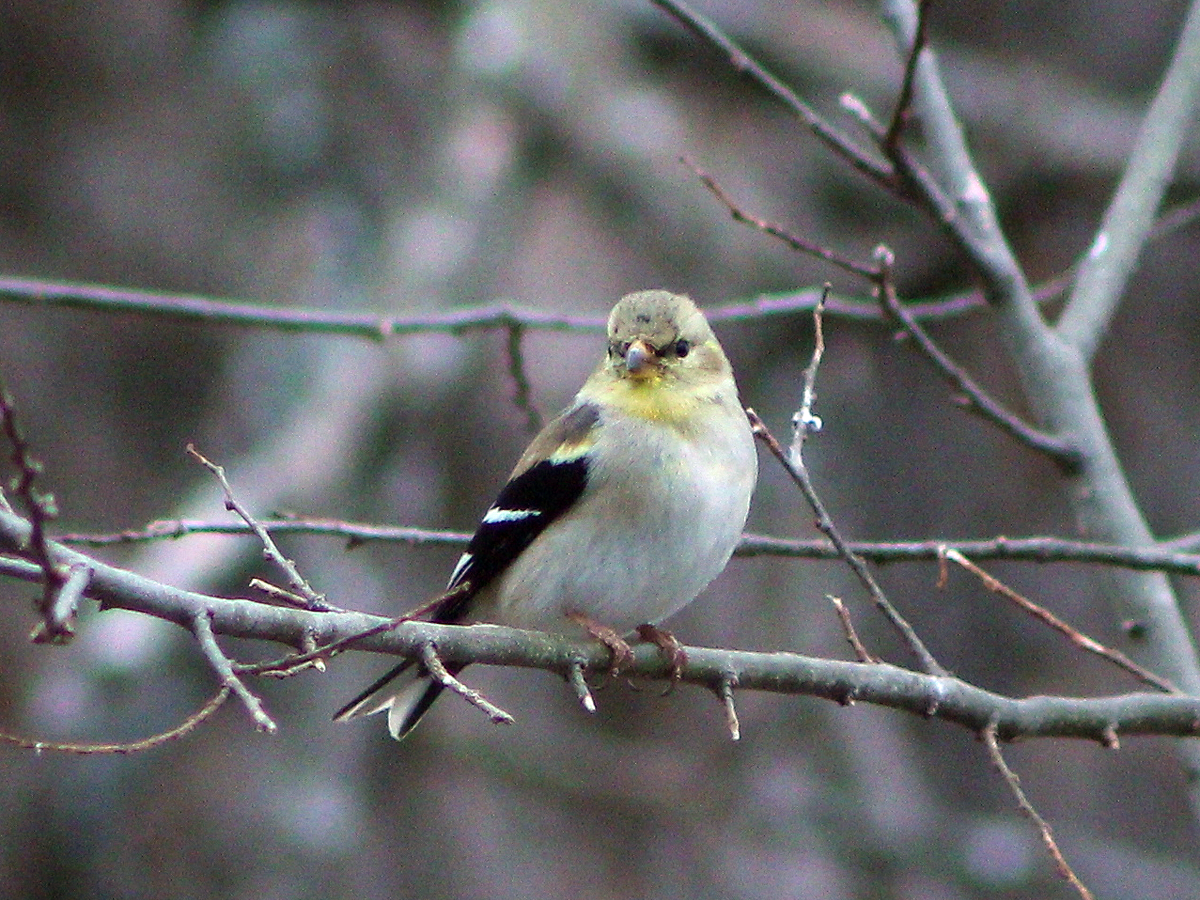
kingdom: Animalia
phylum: Chordata
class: Aves
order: Passeriformes
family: Fringillidae
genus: Spinus
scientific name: Spinus tristis
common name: American goldfinch
